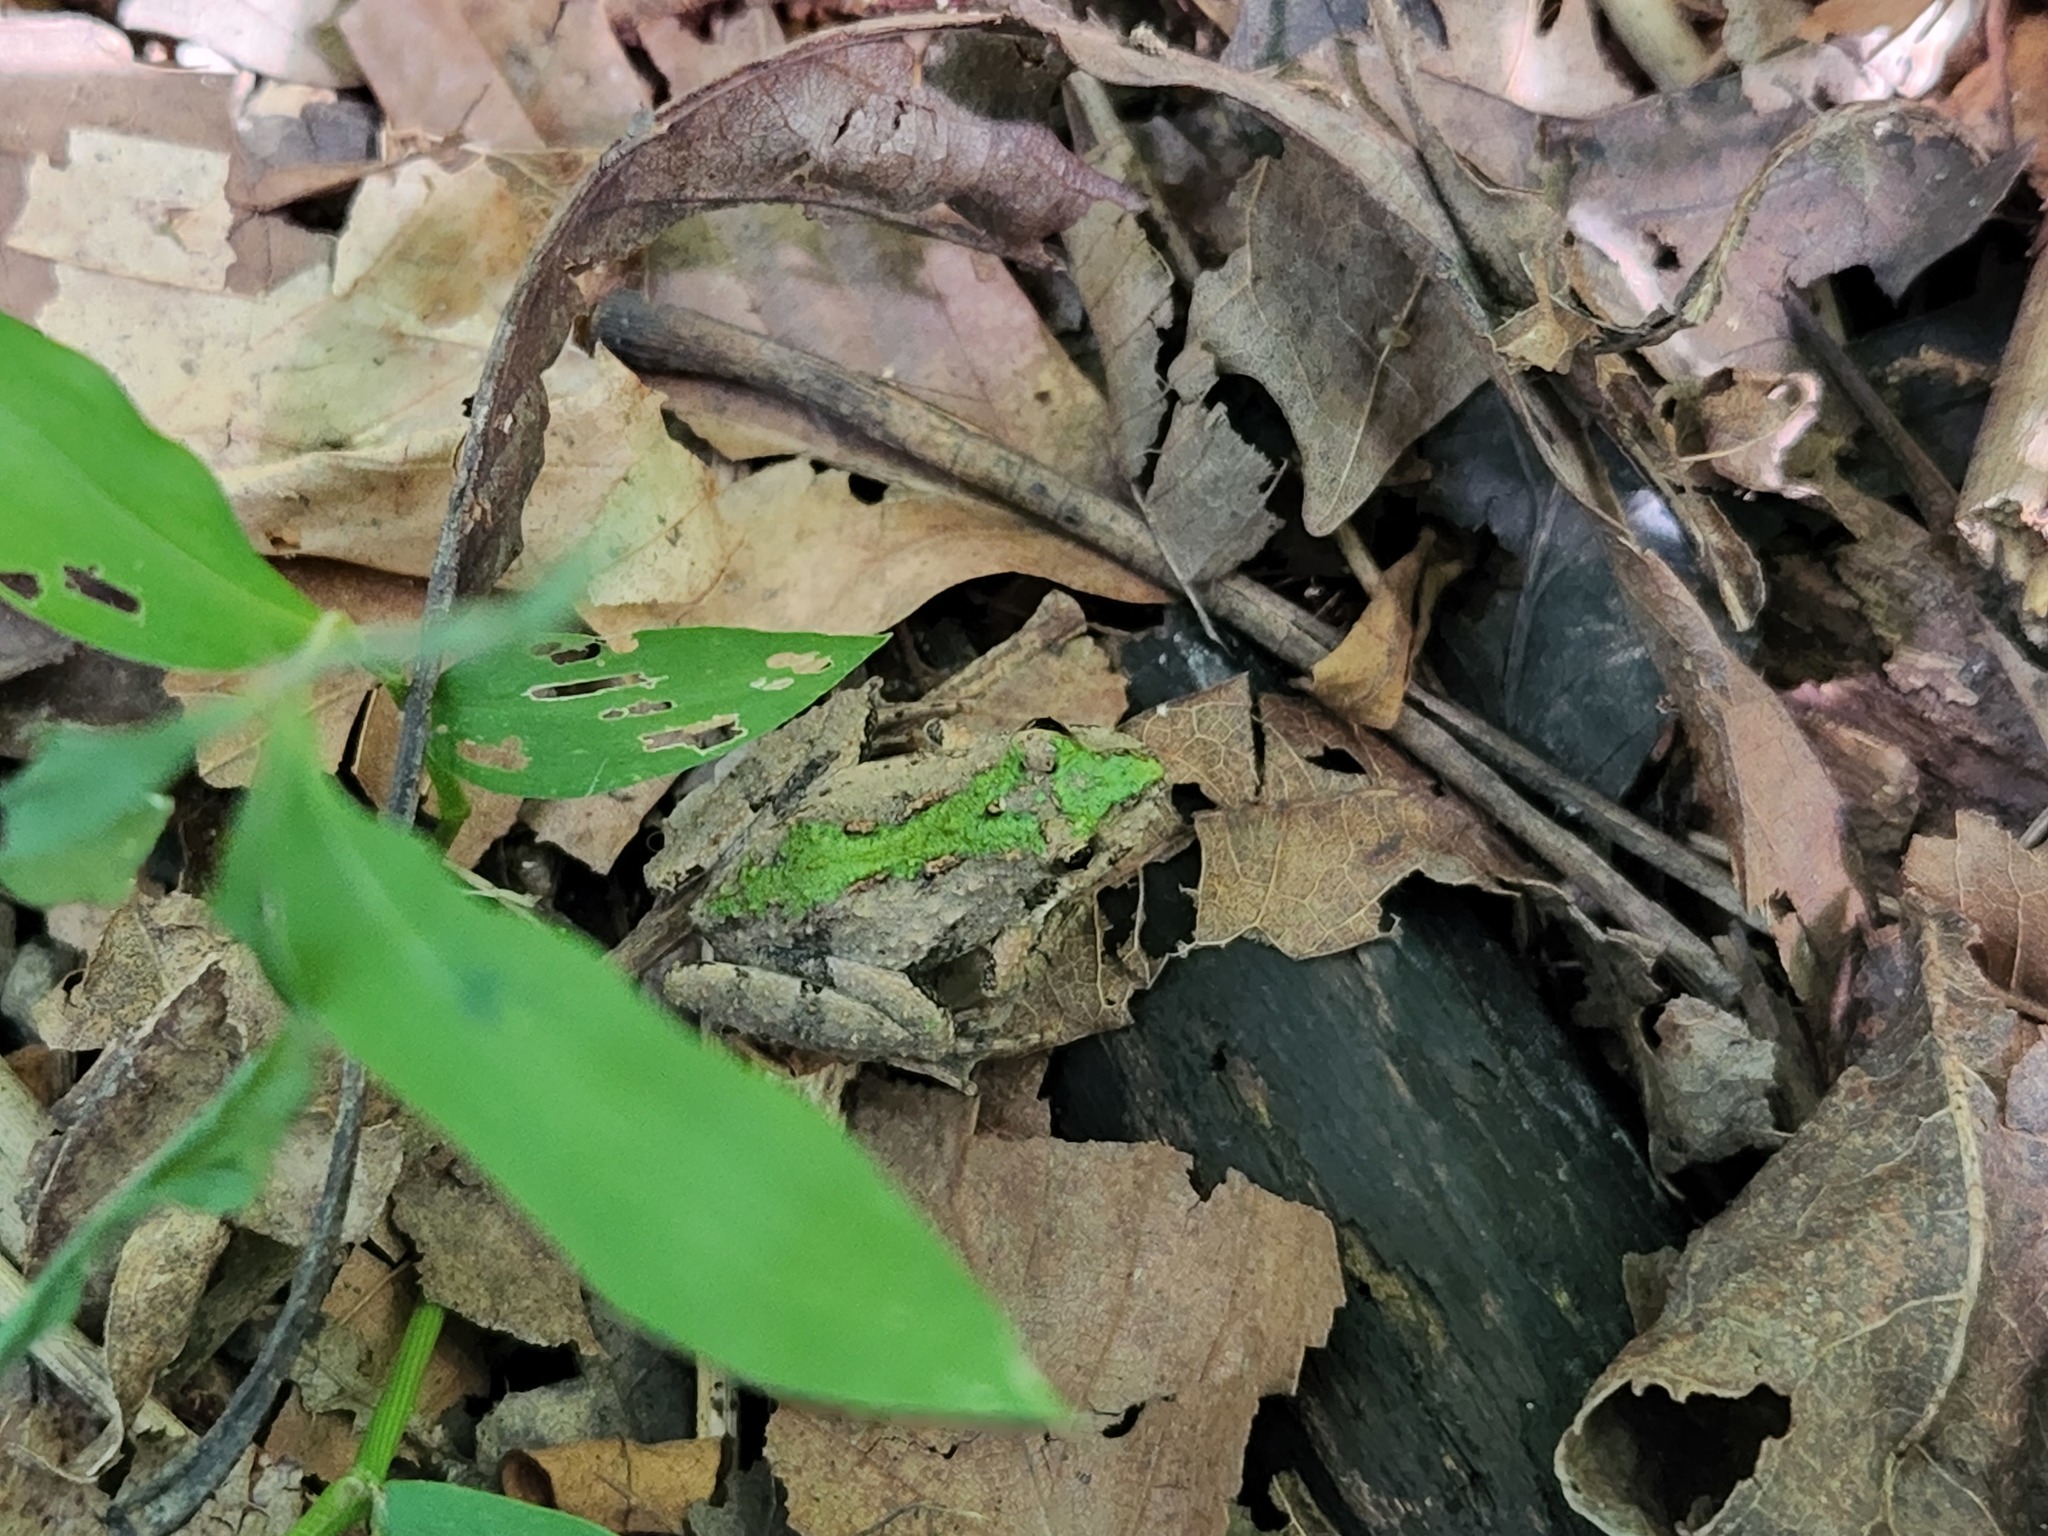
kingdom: Animalia
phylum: Chordata
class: Amphibia
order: Anura
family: Hylidae
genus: Acris
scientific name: Acris crepitans
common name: Northern cricket frog
